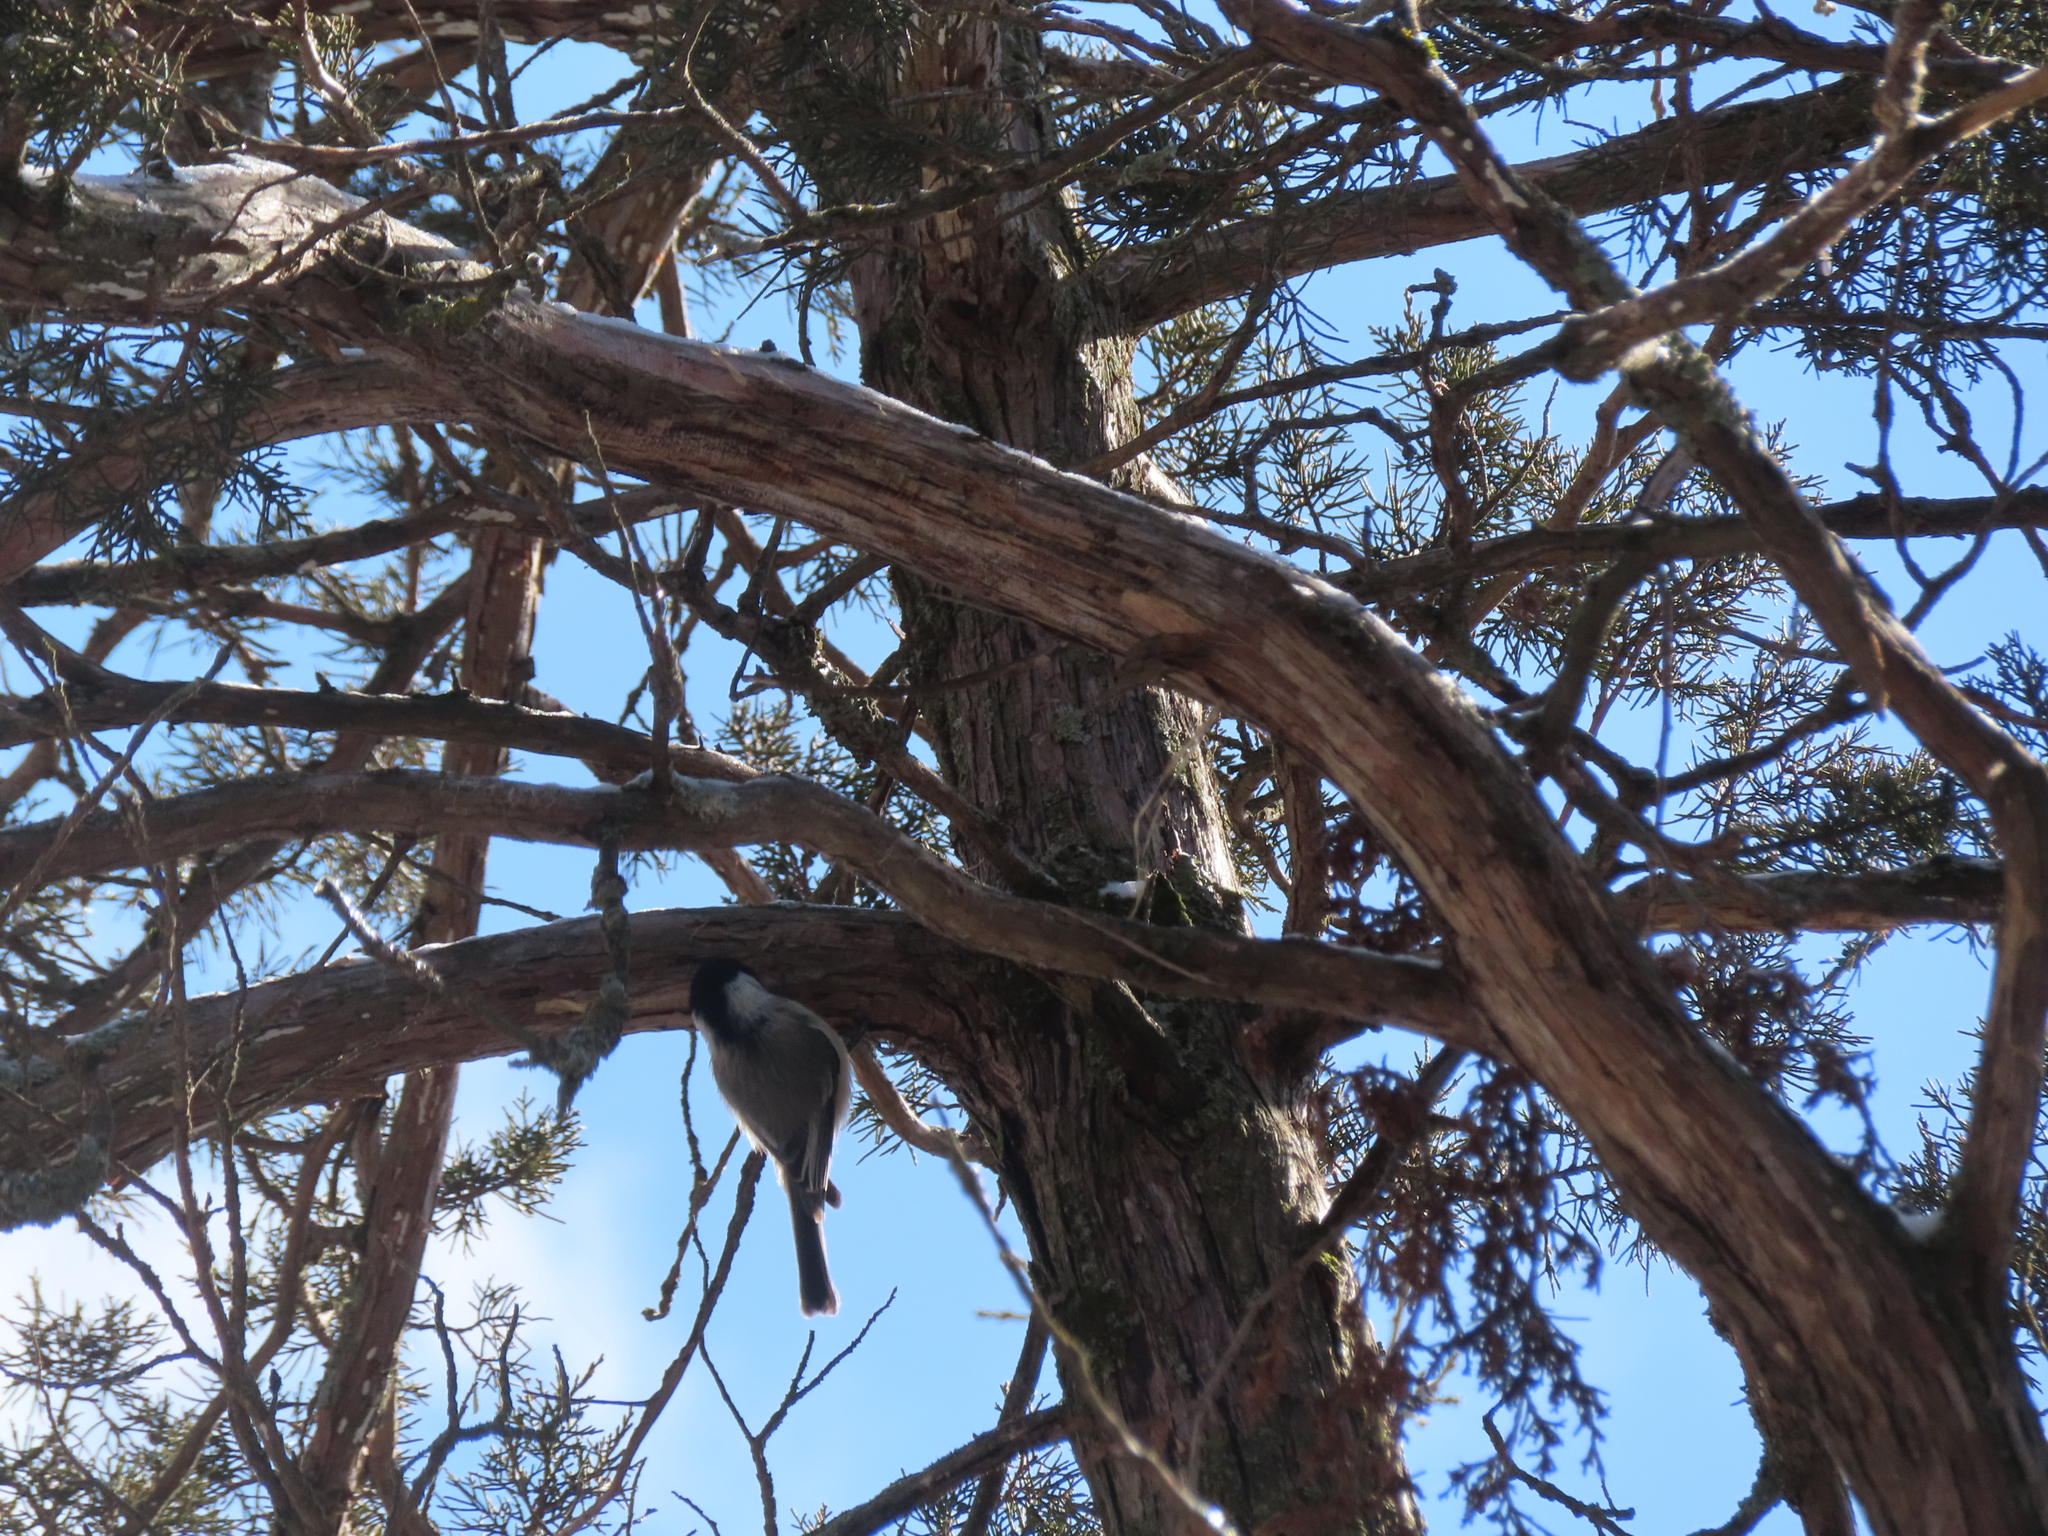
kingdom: Animalia
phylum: Chordata
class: Aves
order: Passeriformes
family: Paridae
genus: Poecile
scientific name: Poecile atricapillus
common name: Black-capped chickadee
